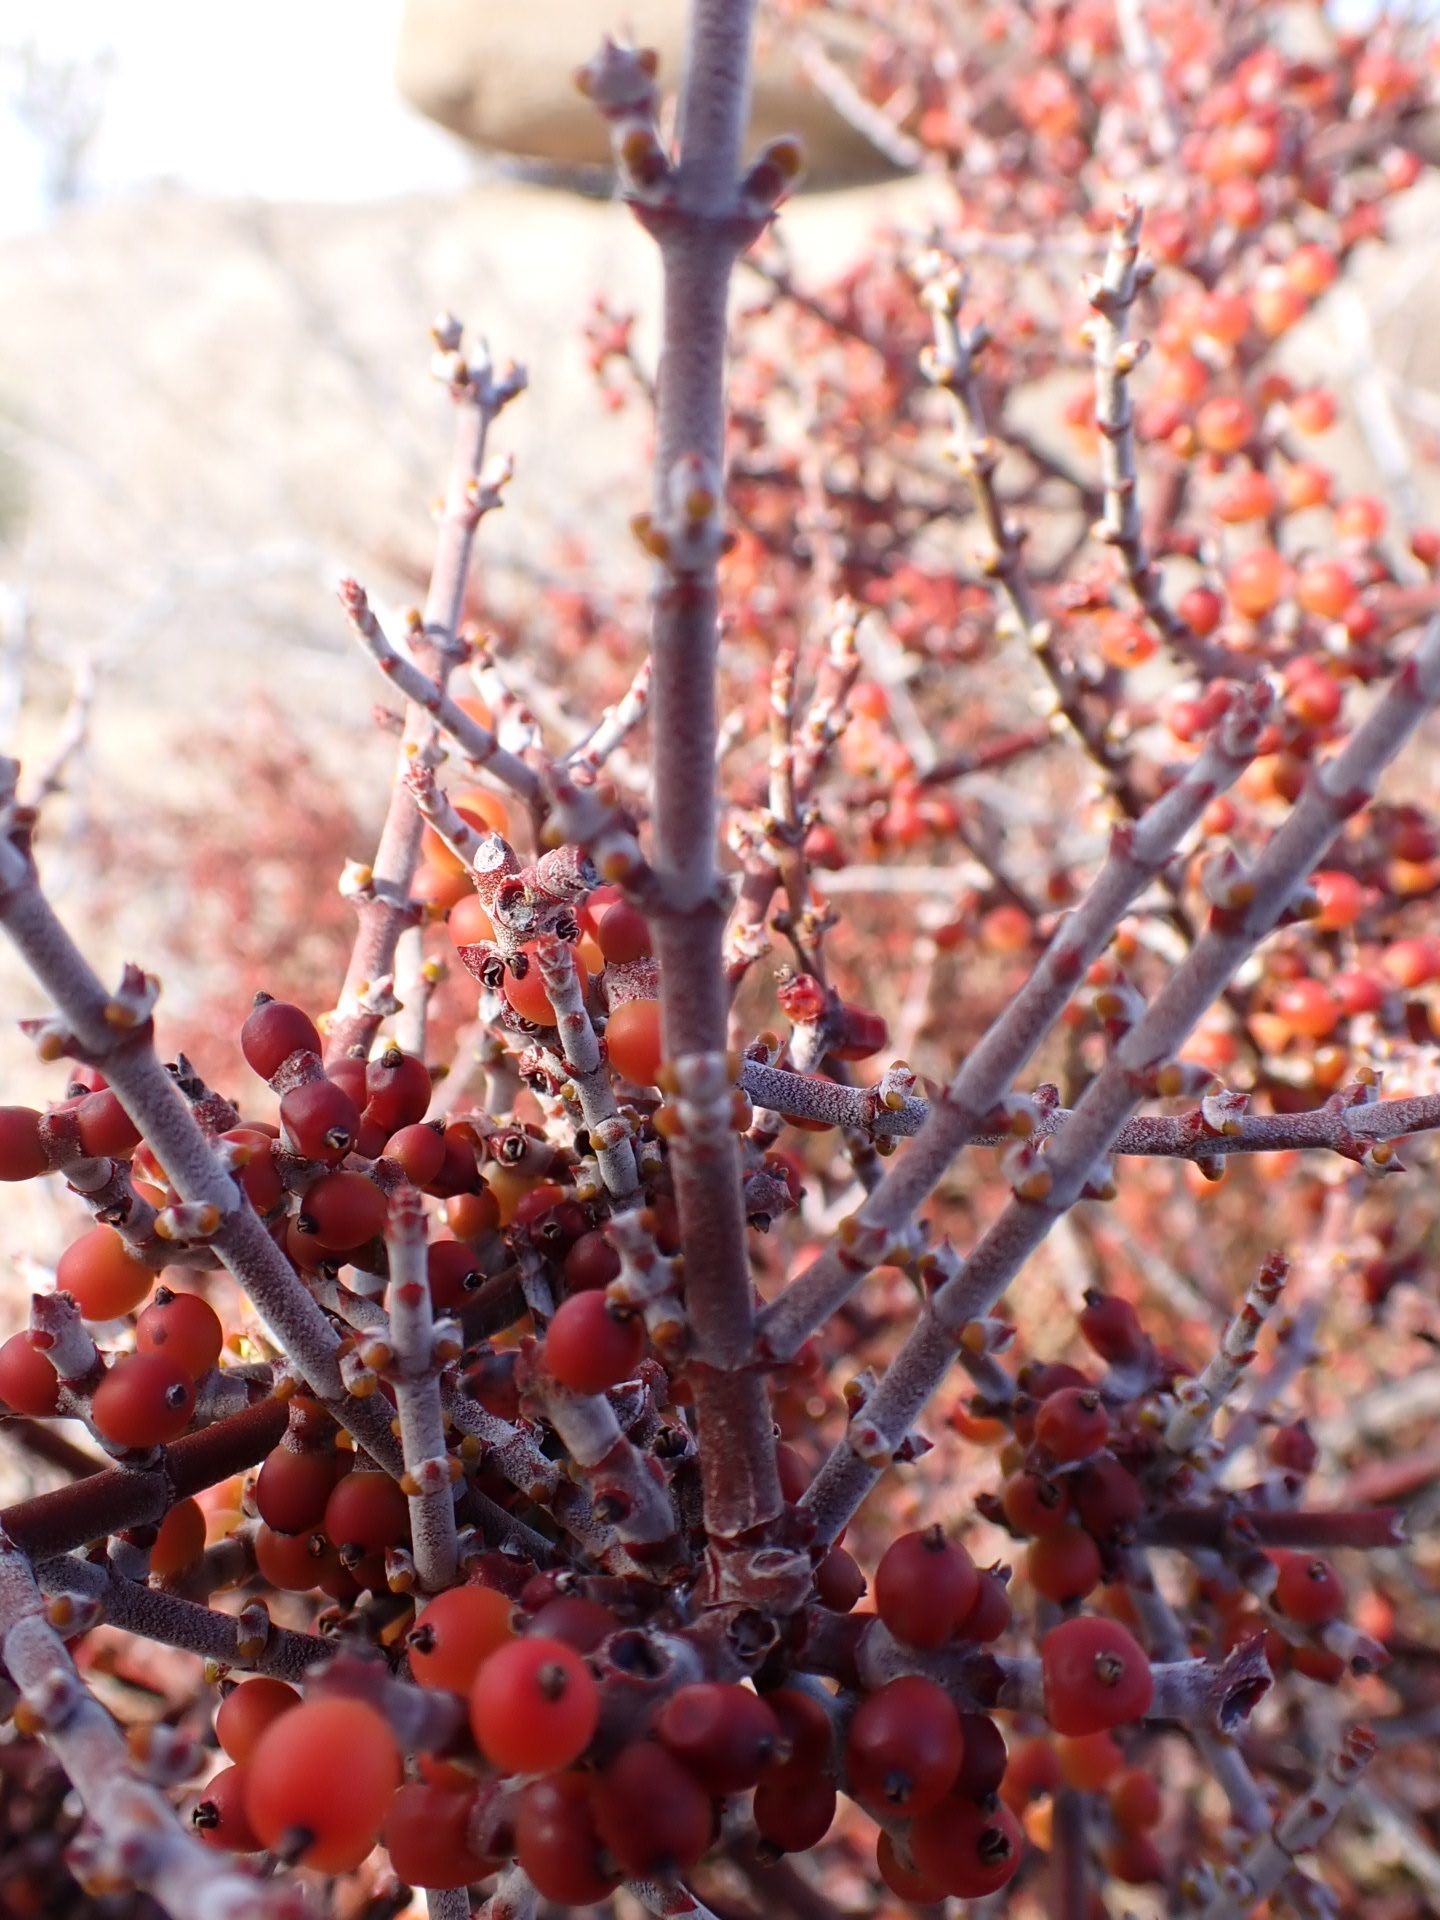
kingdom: Plantae
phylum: Tracheophyta
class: Magnoliopsida
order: Santalales
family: Viscaceae
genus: Phoradendron
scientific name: Phoradendron californicum
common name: Acacia mistletoe
